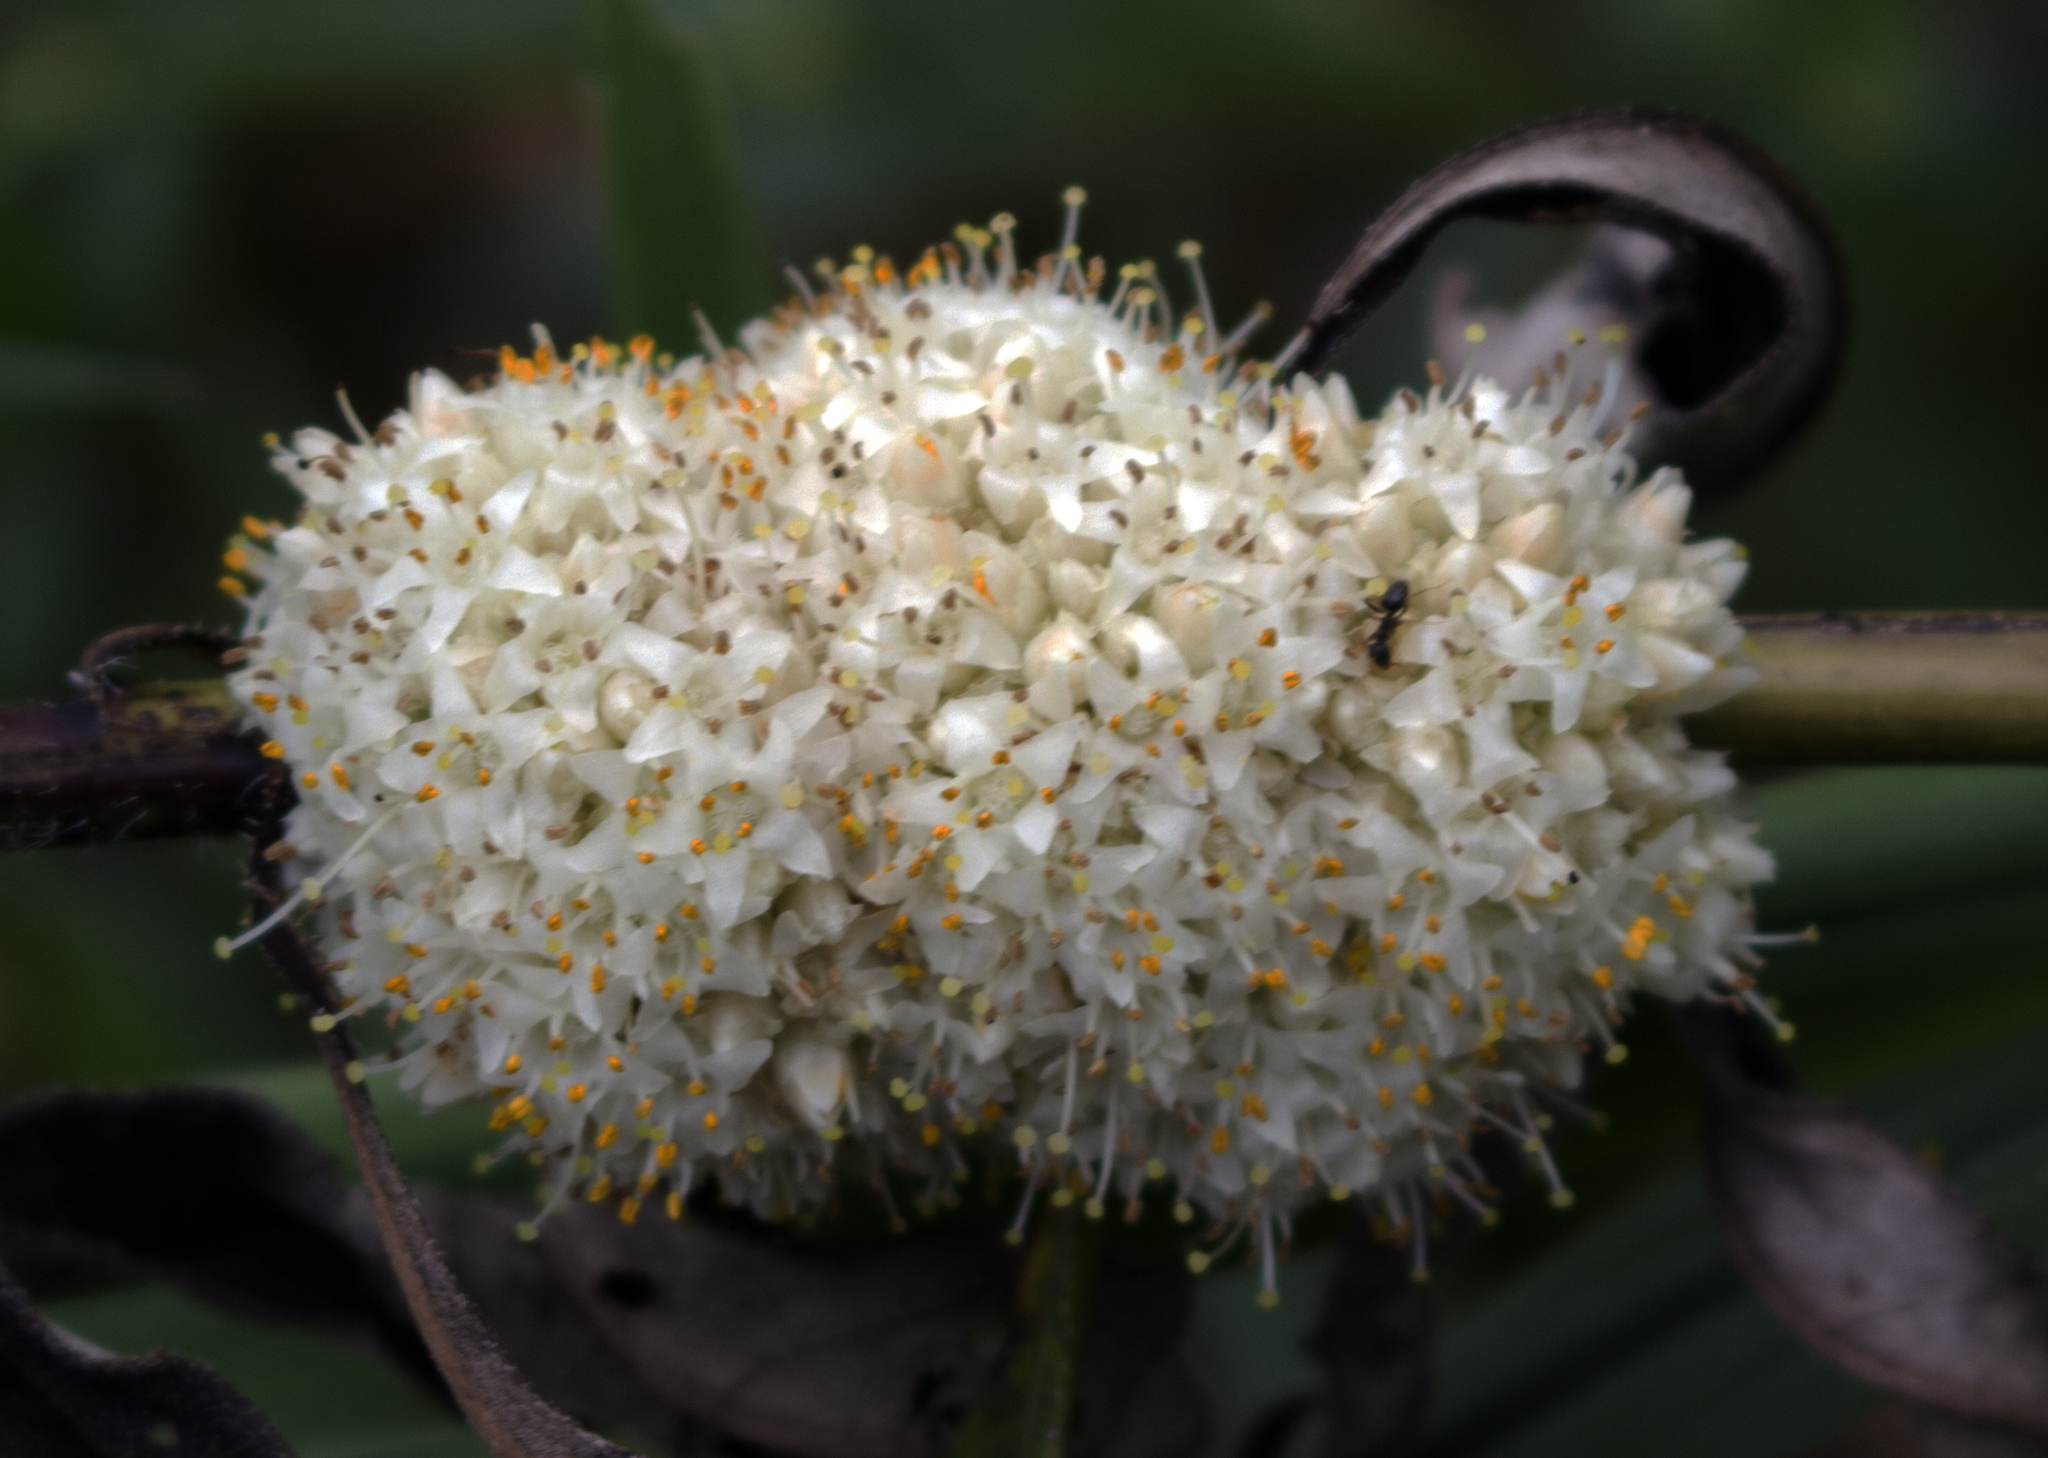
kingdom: Plantae
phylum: Tracheophyta
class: Magnoliopsida
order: Solanales
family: Convolvulaceae
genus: Cuscuta
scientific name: Cuscuta glomerata
